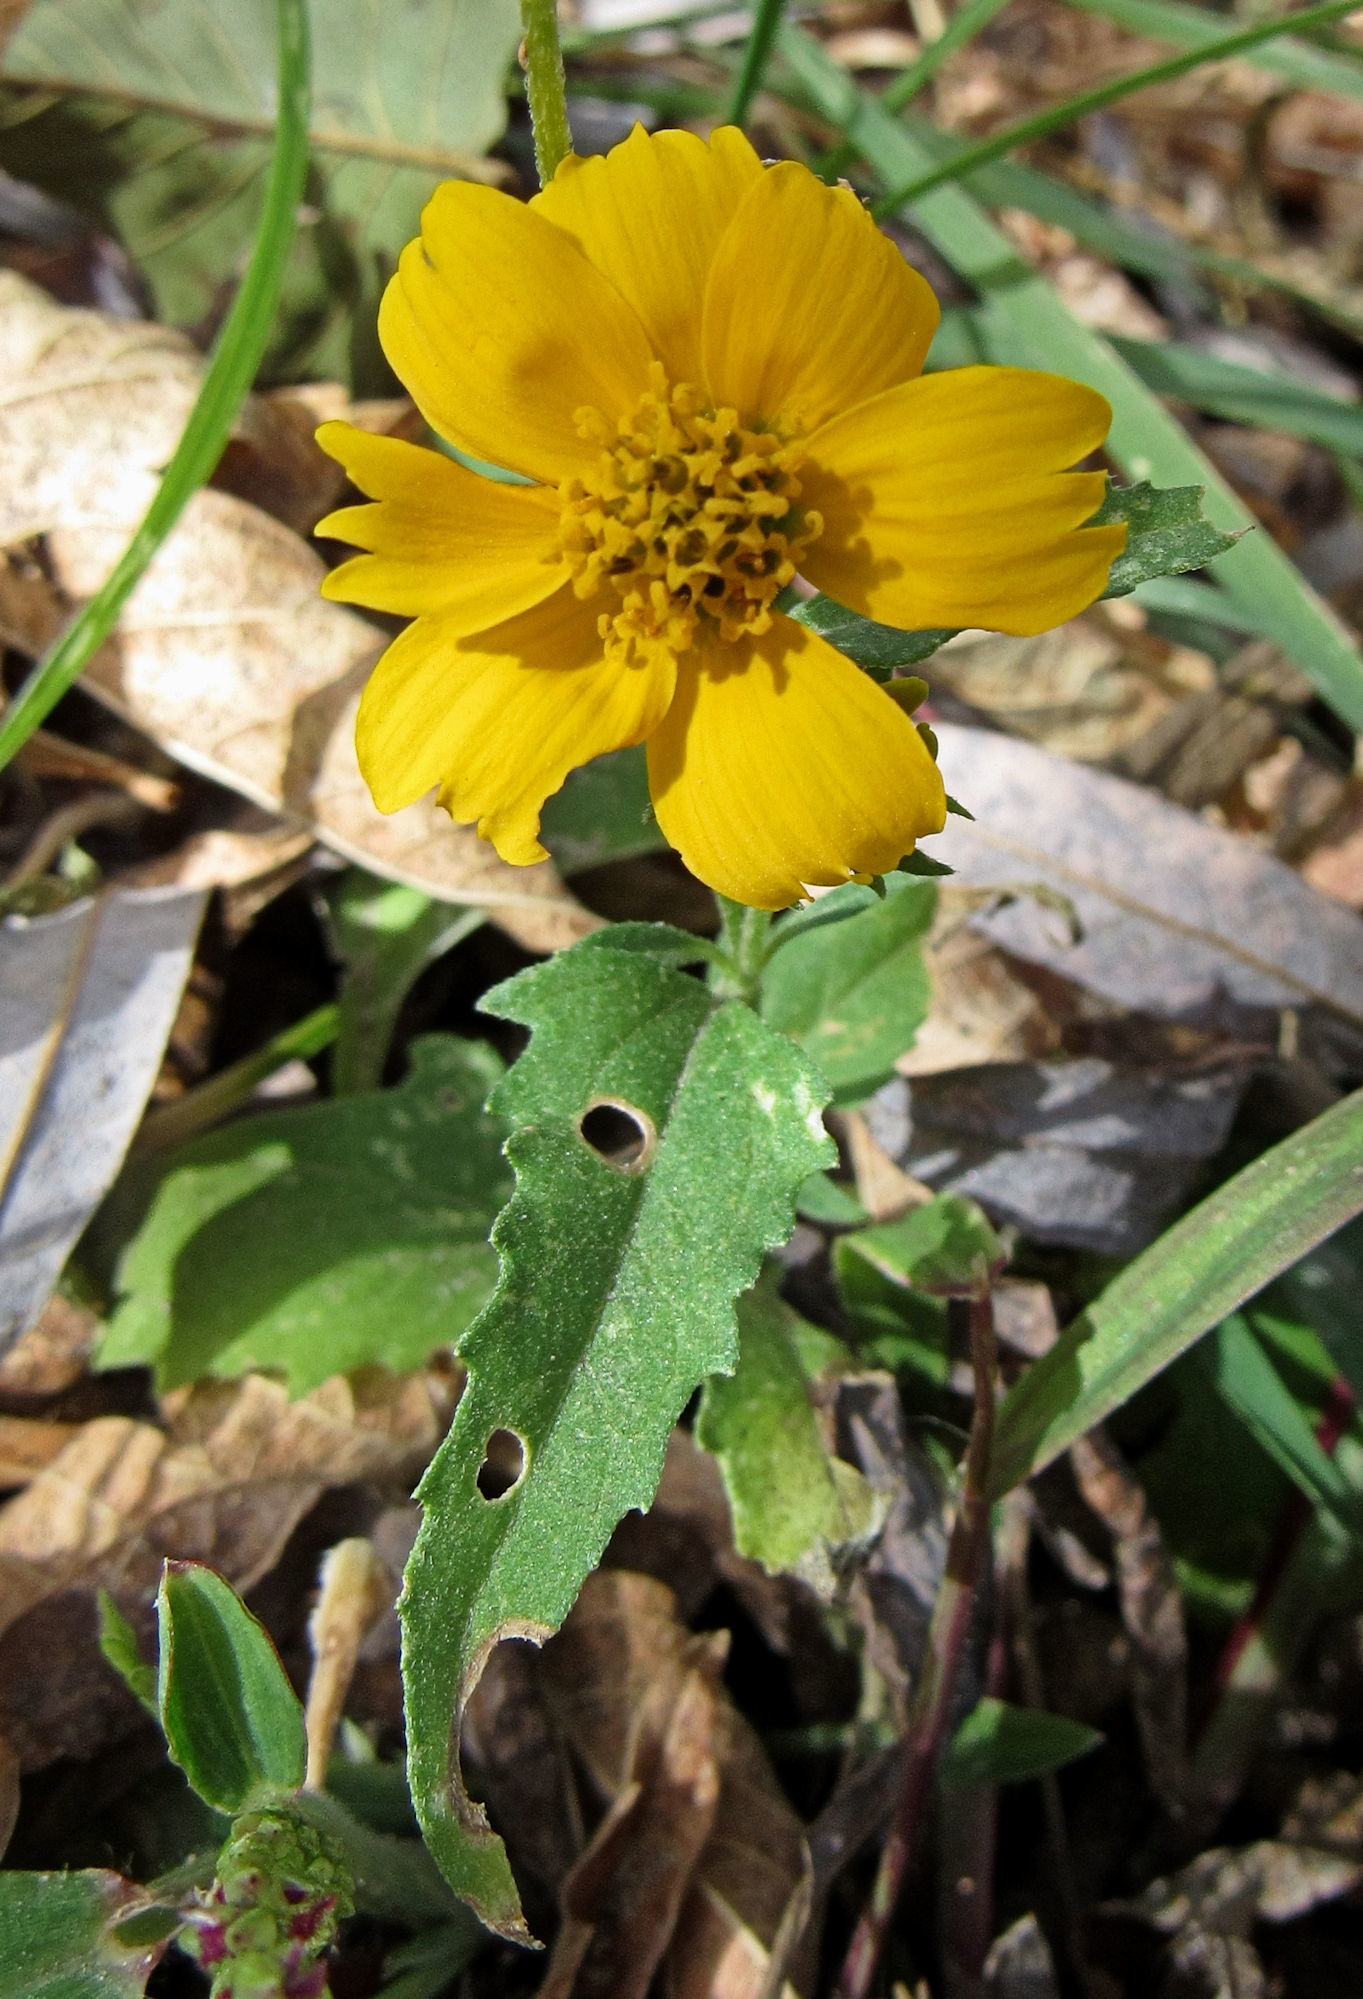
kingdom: Plantae
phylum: Tracheophyta
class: Magnoliopsida
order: Asterales
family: Asteraceae
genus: Verbesina
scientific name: Verbesina encelioides
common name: Golden crownbeard
